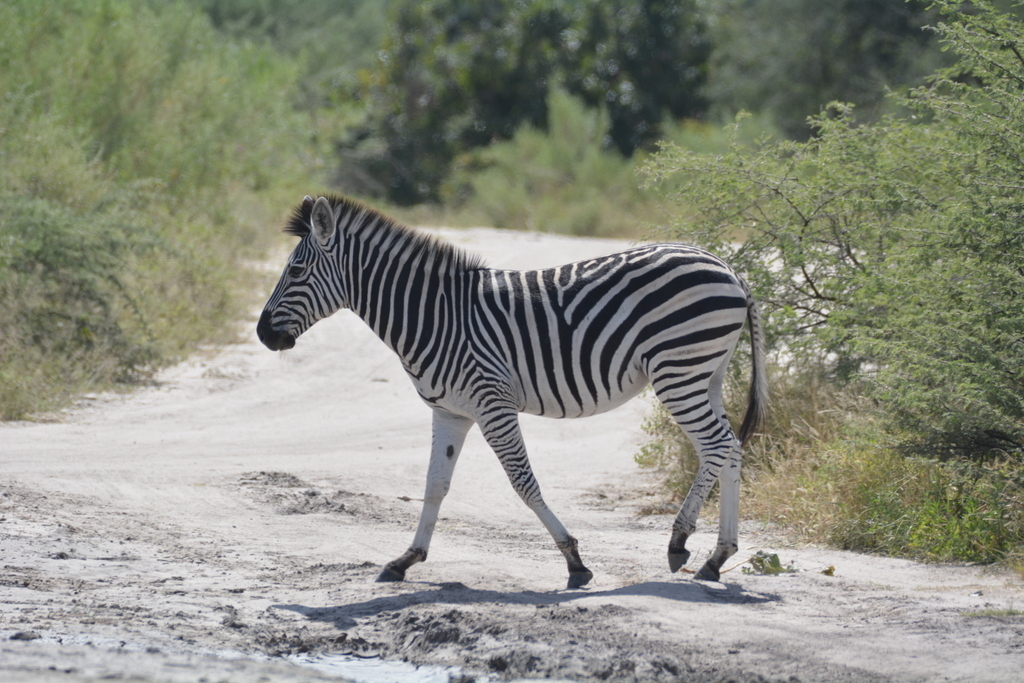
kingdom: Animalia
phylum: Chordata
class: Mammalia
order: Perissodactyla
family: Equidae
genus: Equus
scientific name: Equus quagga
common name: Plains zebra
